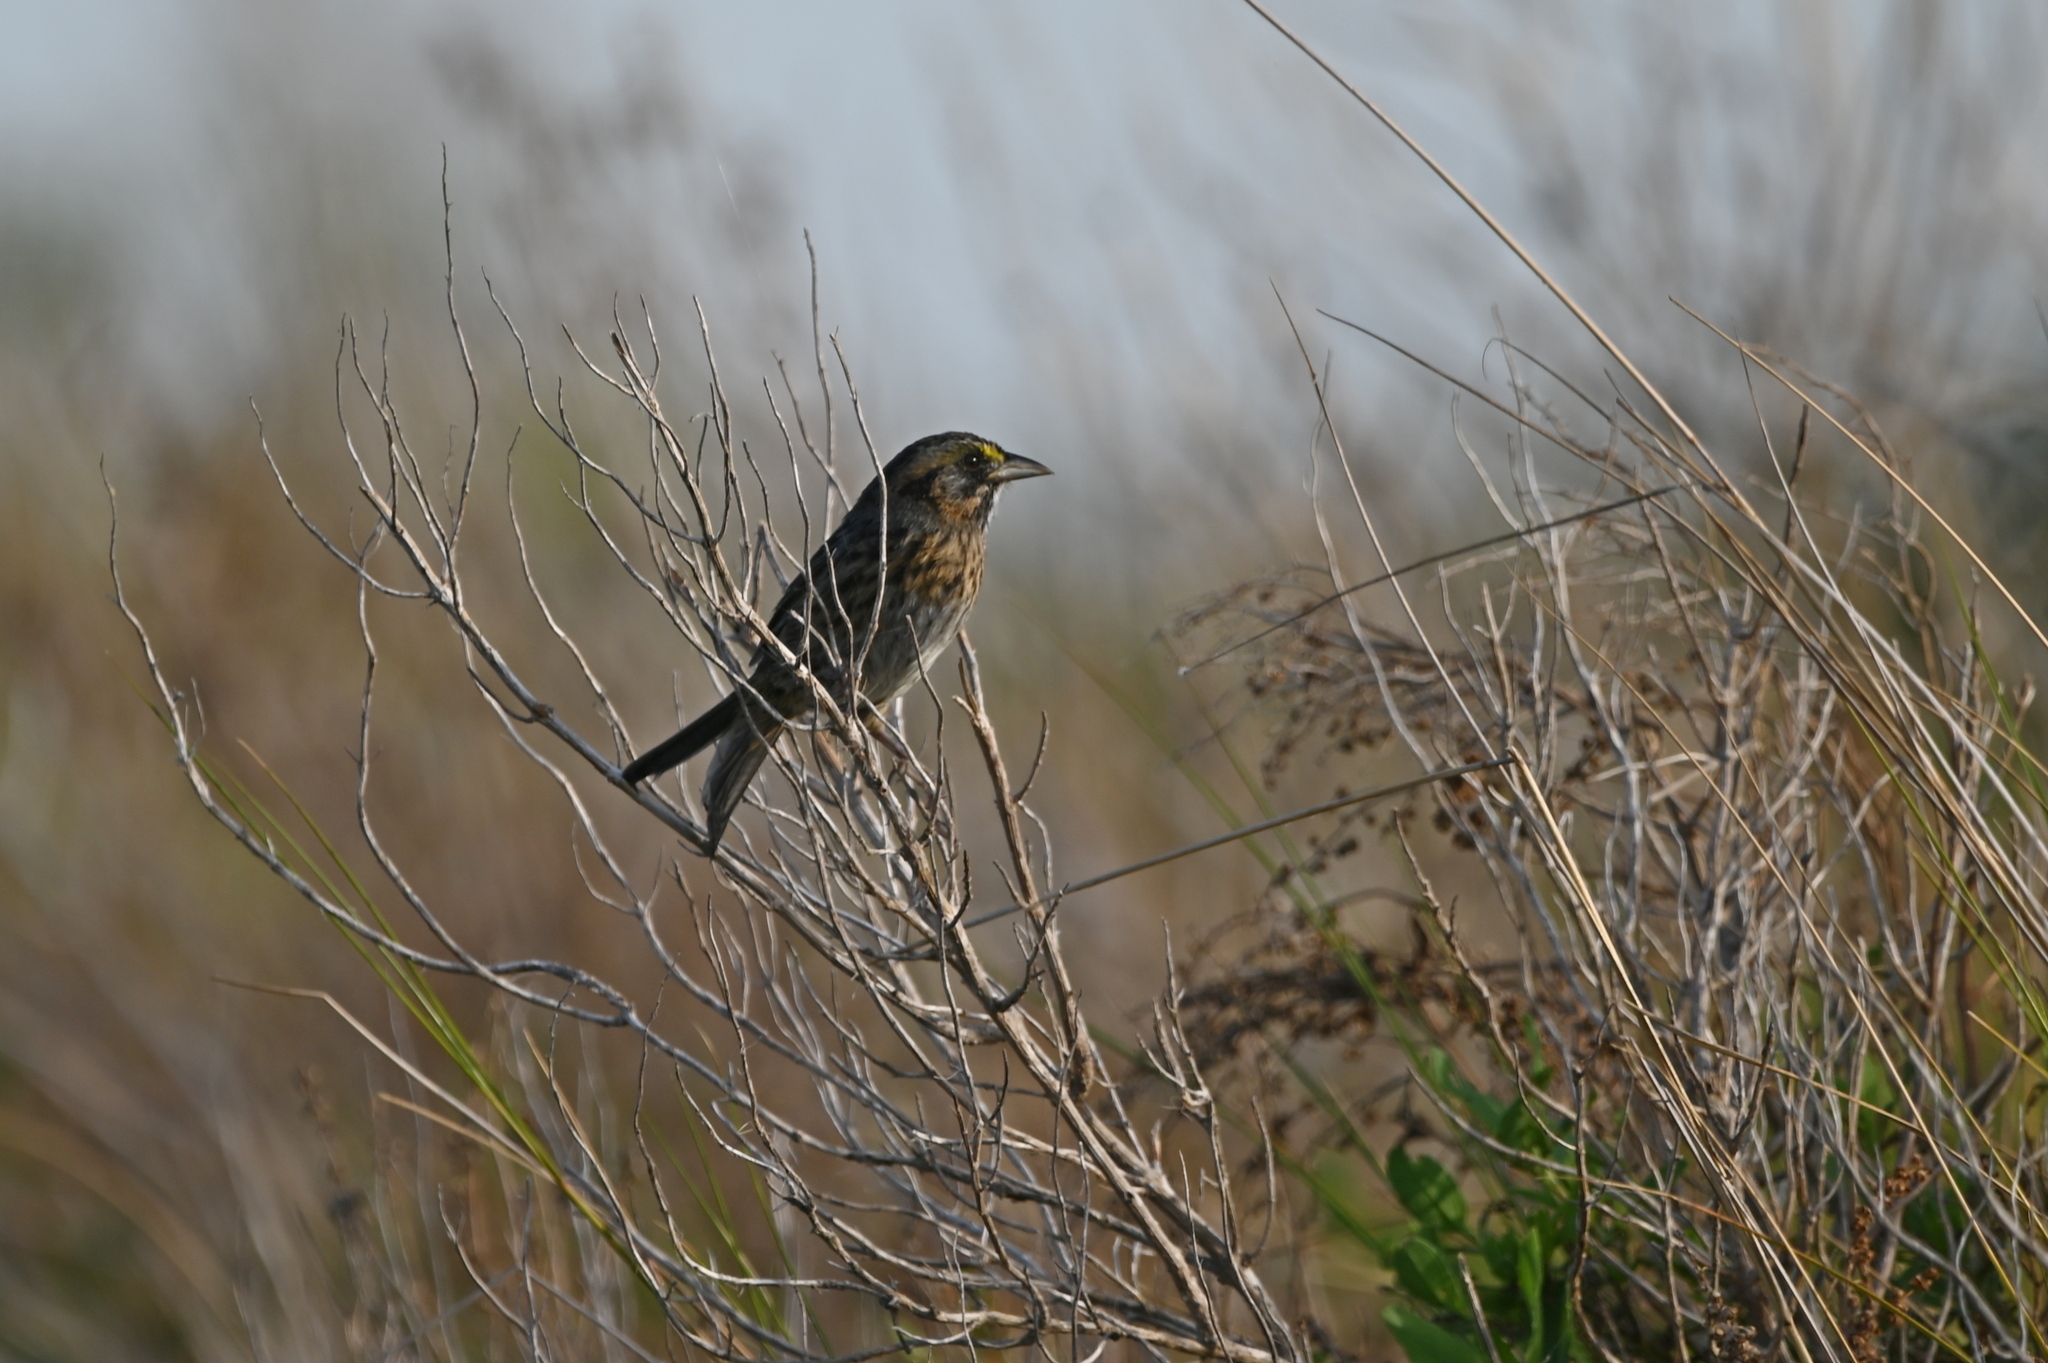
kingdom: Animalia
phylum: Chordata
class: Aves
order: Passeriformes
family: Passerellidae
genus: Ammospiza
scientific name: Ammospiza maritima
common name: Seaside sparrow
